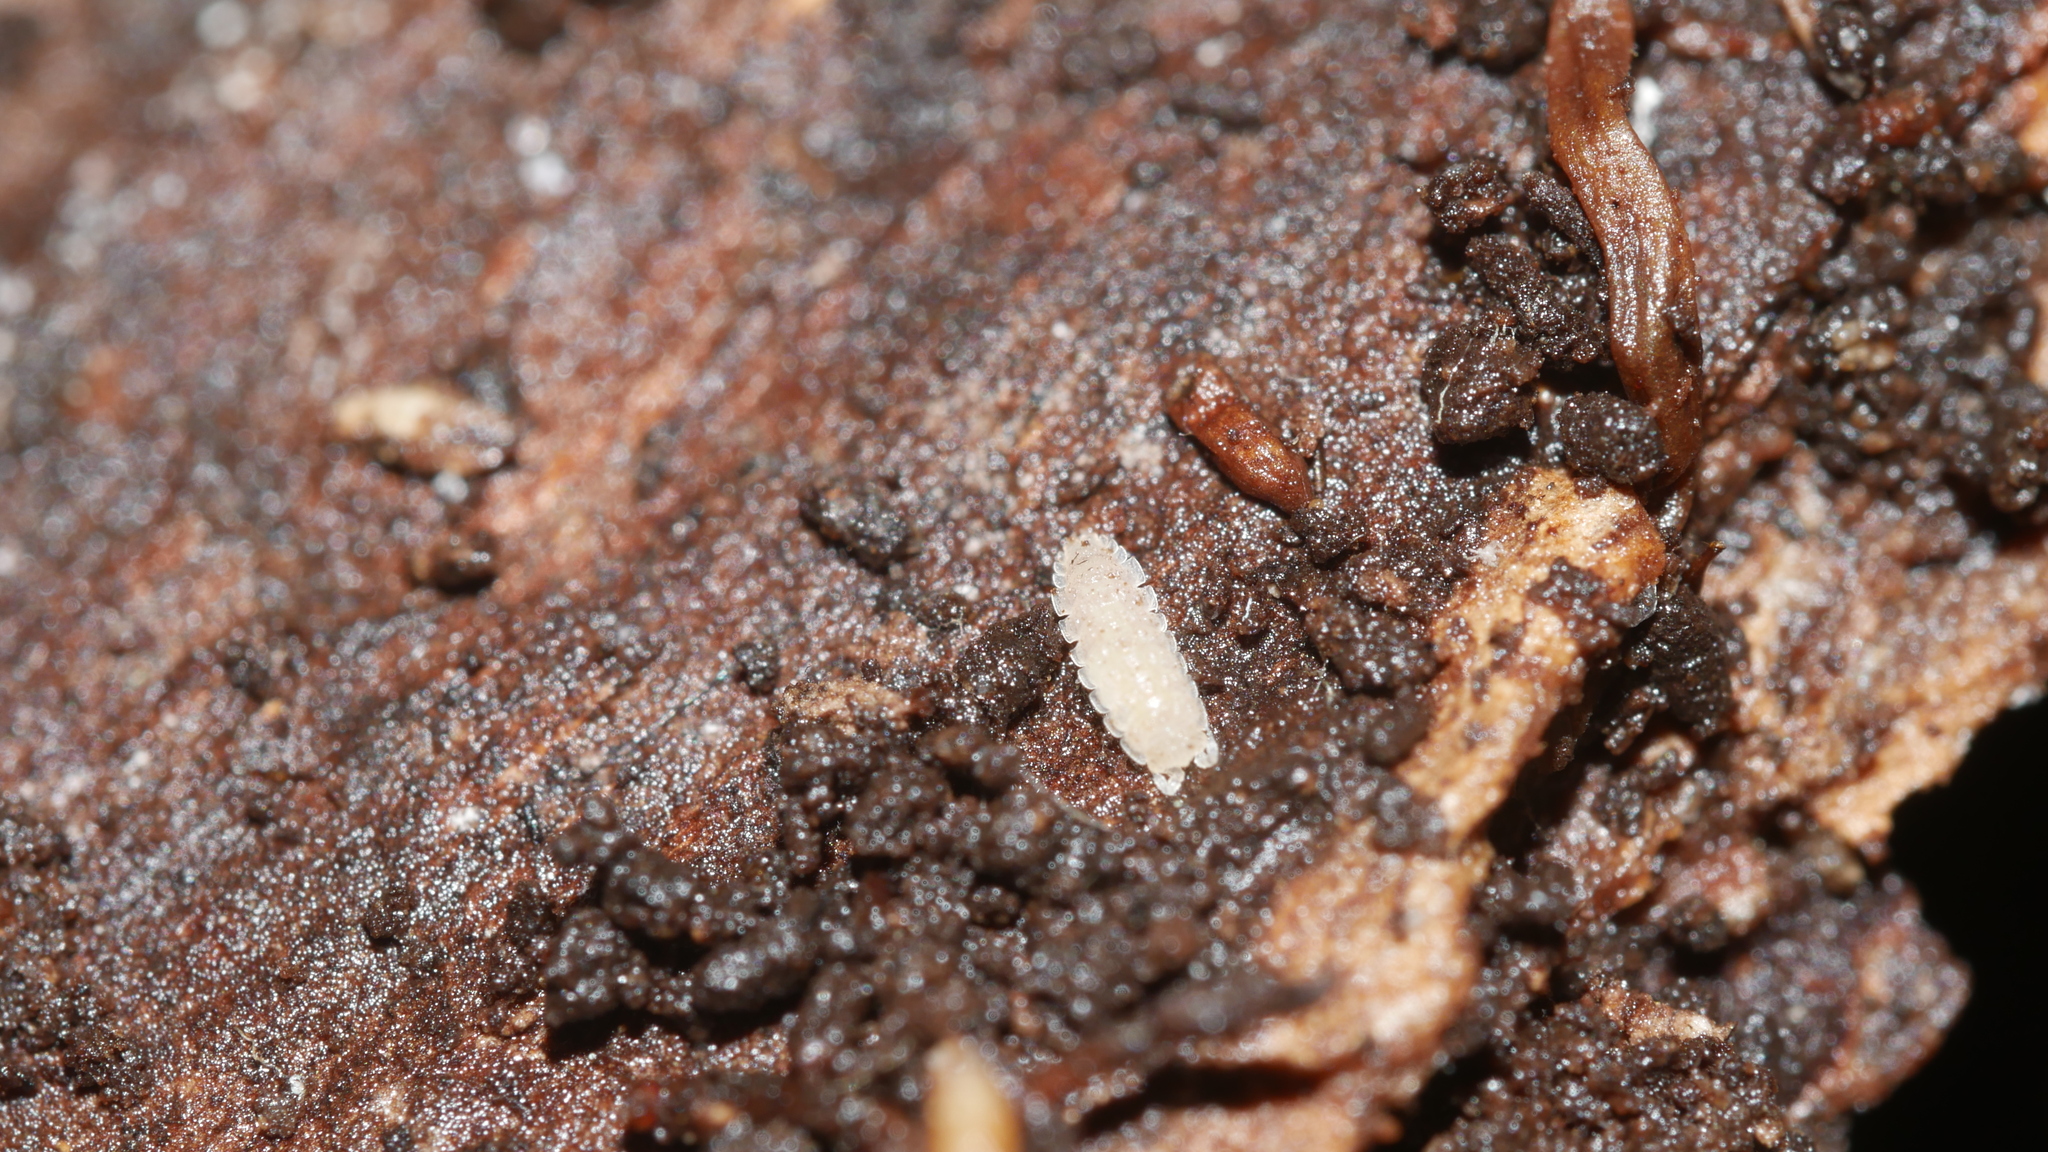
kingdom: Animalia
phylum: Arthropoda
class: Malacostraca
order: Isopoda
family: Trichoniscidae
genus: Haplophthalmus
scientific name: Haplophthalmus danicus
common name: Pillbug
